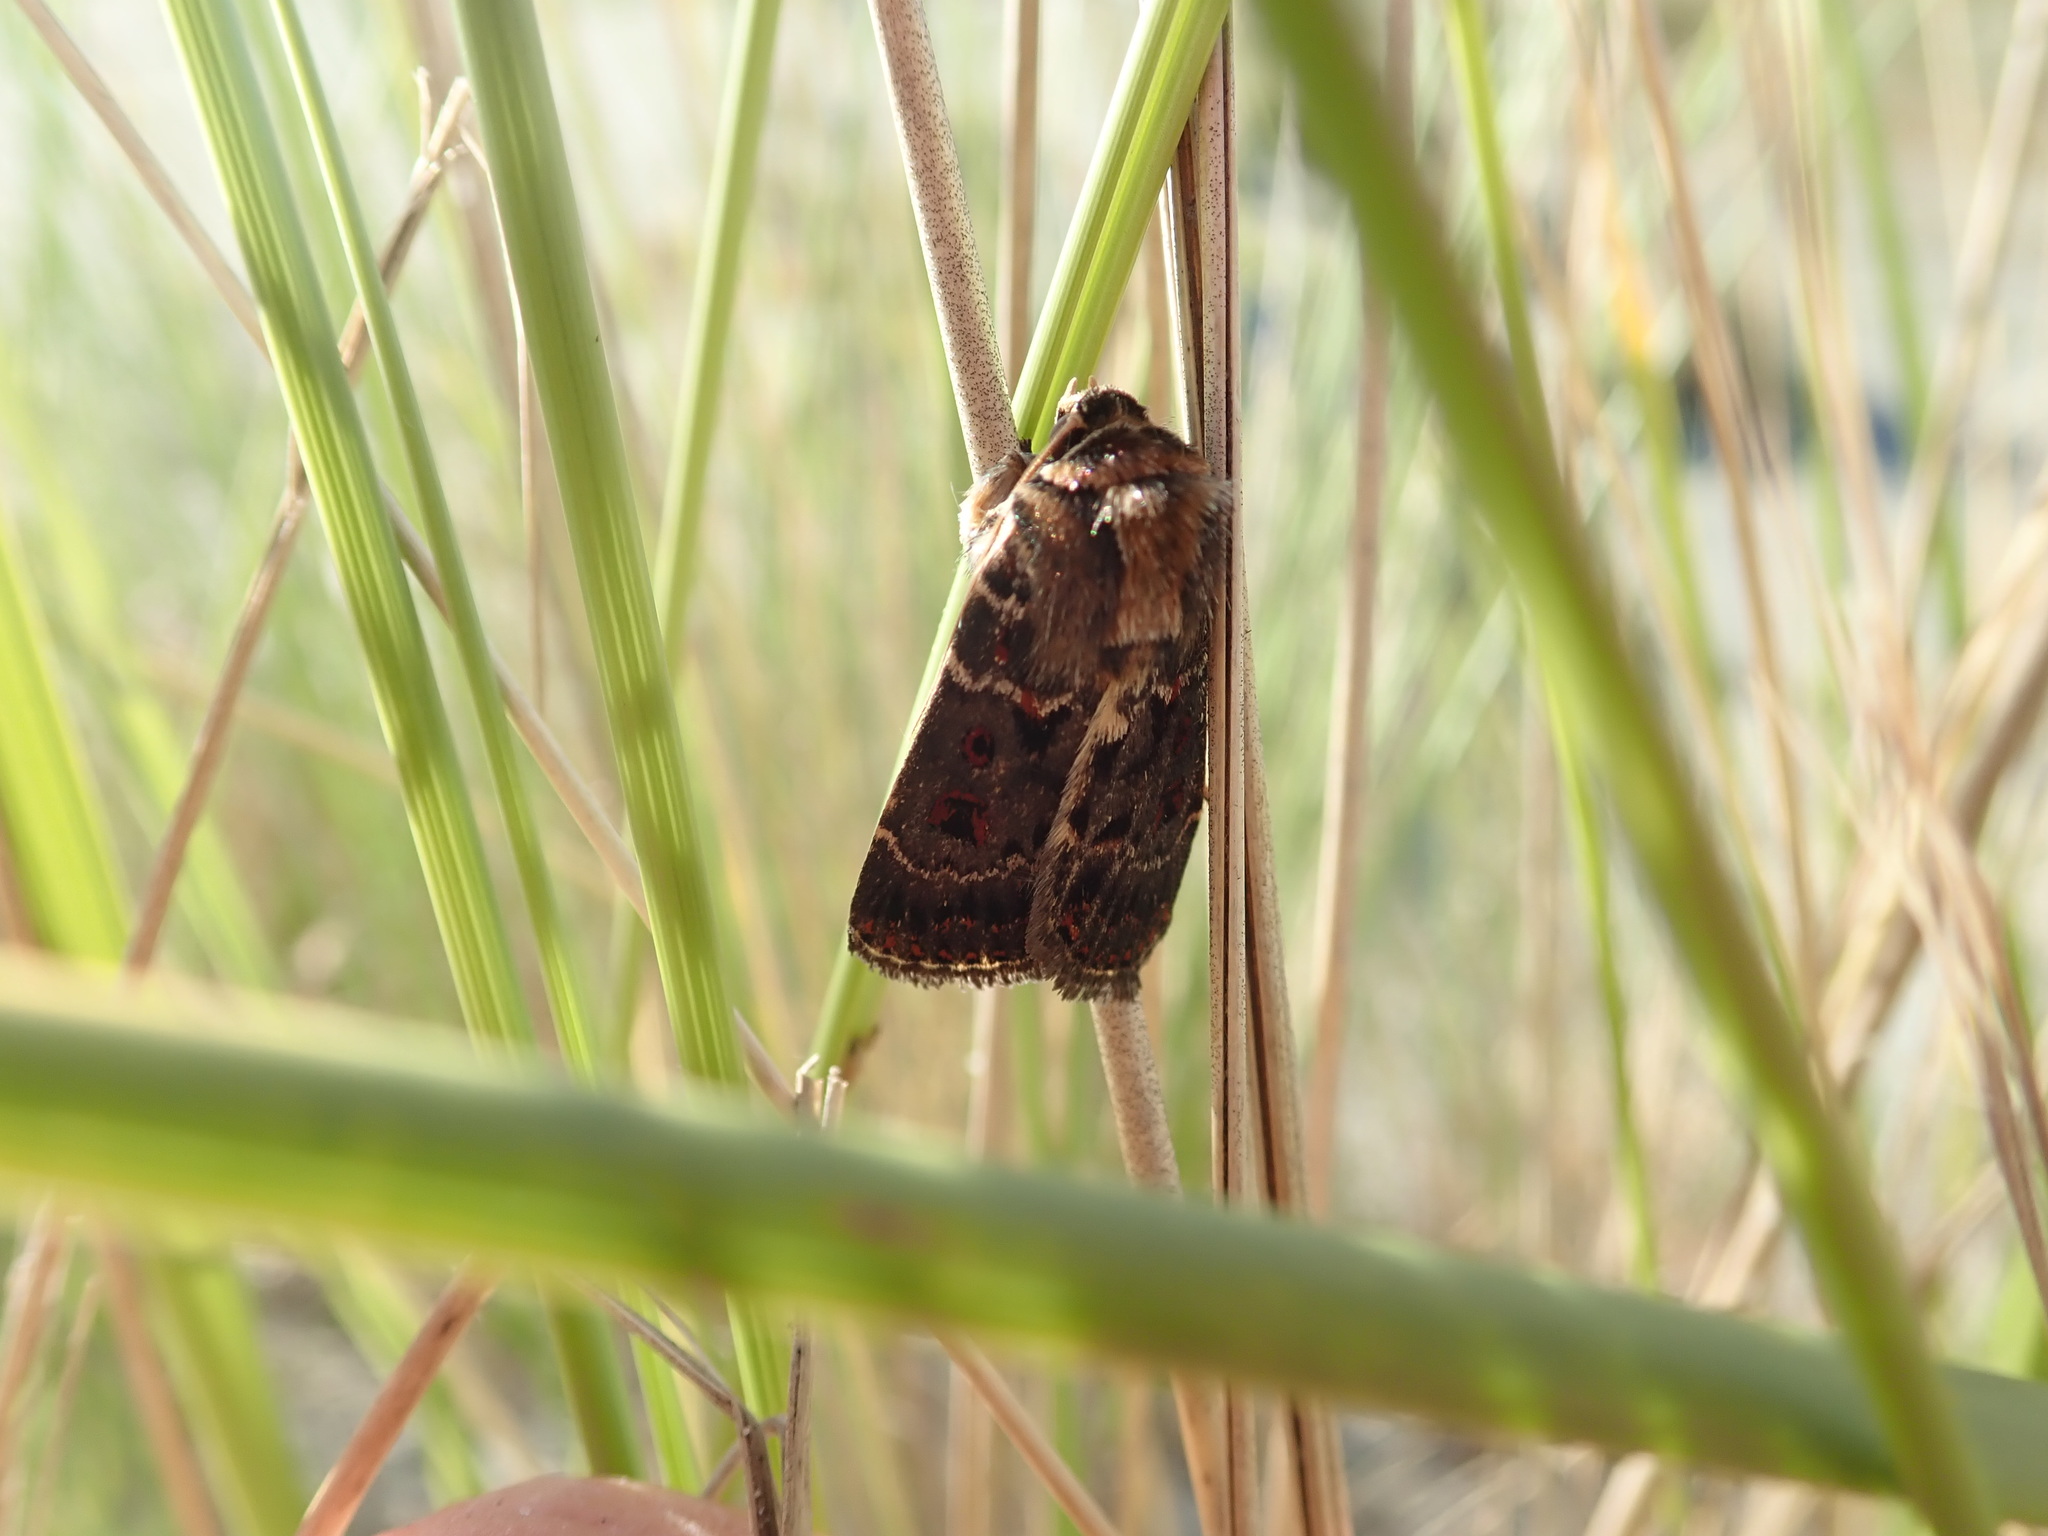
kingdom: Animalia
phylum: Arthropoda
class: Insecta
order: Lepidoptera
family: Noctuidae
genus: Proteuxoa
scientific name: Proteuxoa sanguinipuncta
